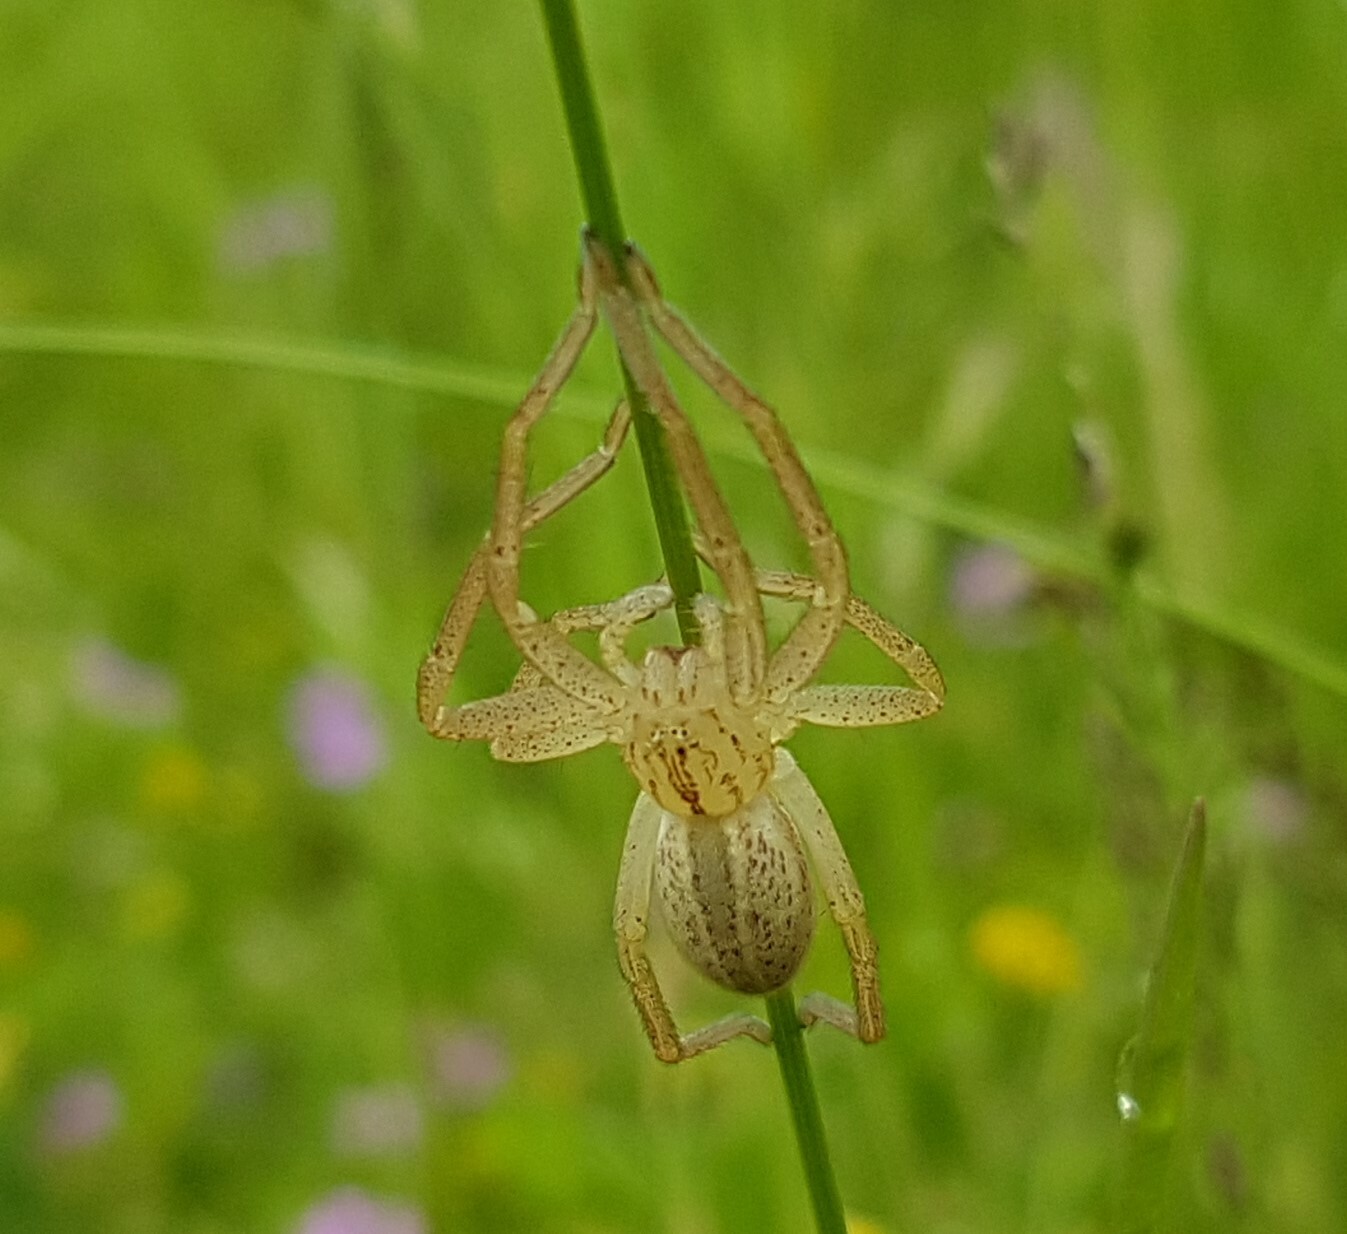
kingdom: Animalia
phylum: Arthropoda
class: Arachnida
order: Araneae
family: Sparassidae
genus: Micrommata
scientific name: Micrommata
